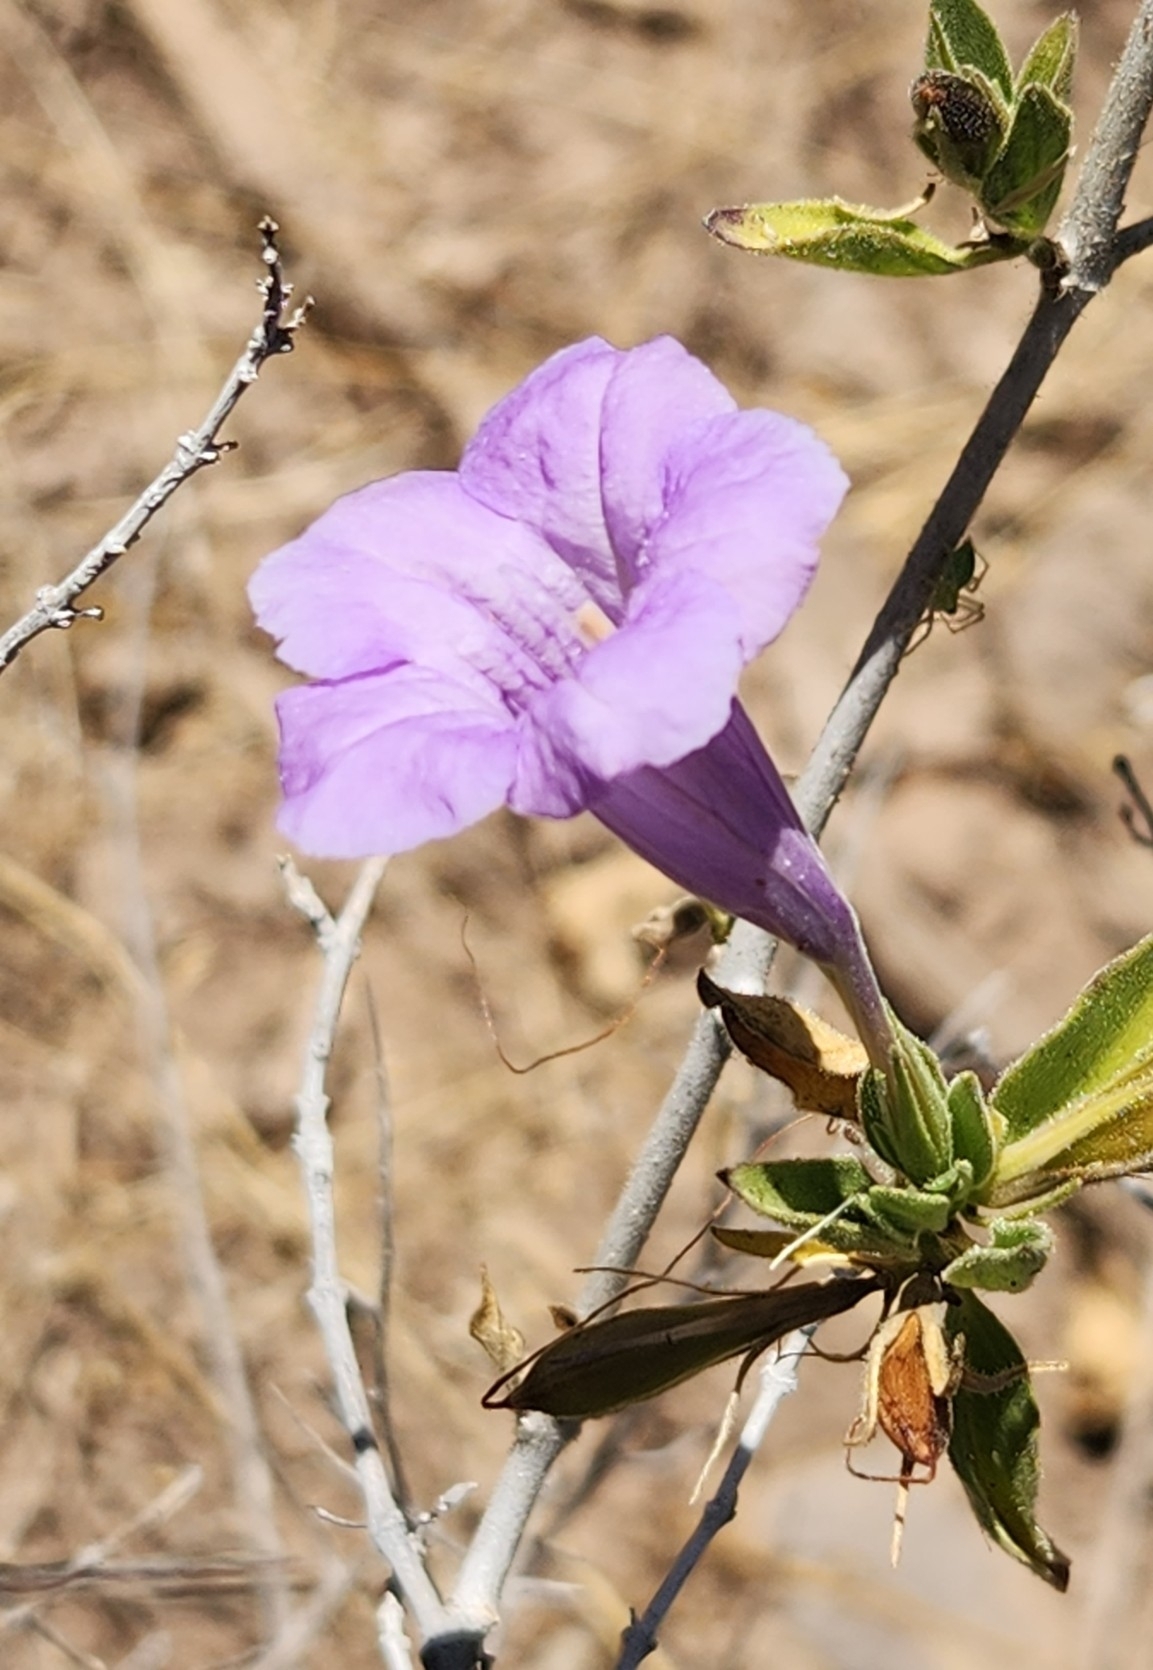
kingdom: Plantae
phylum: Tracheophyta
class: Magnoliopsida
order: Lamiales
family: Acanthaceae
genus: Ruellia
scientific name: Ruellia californica
